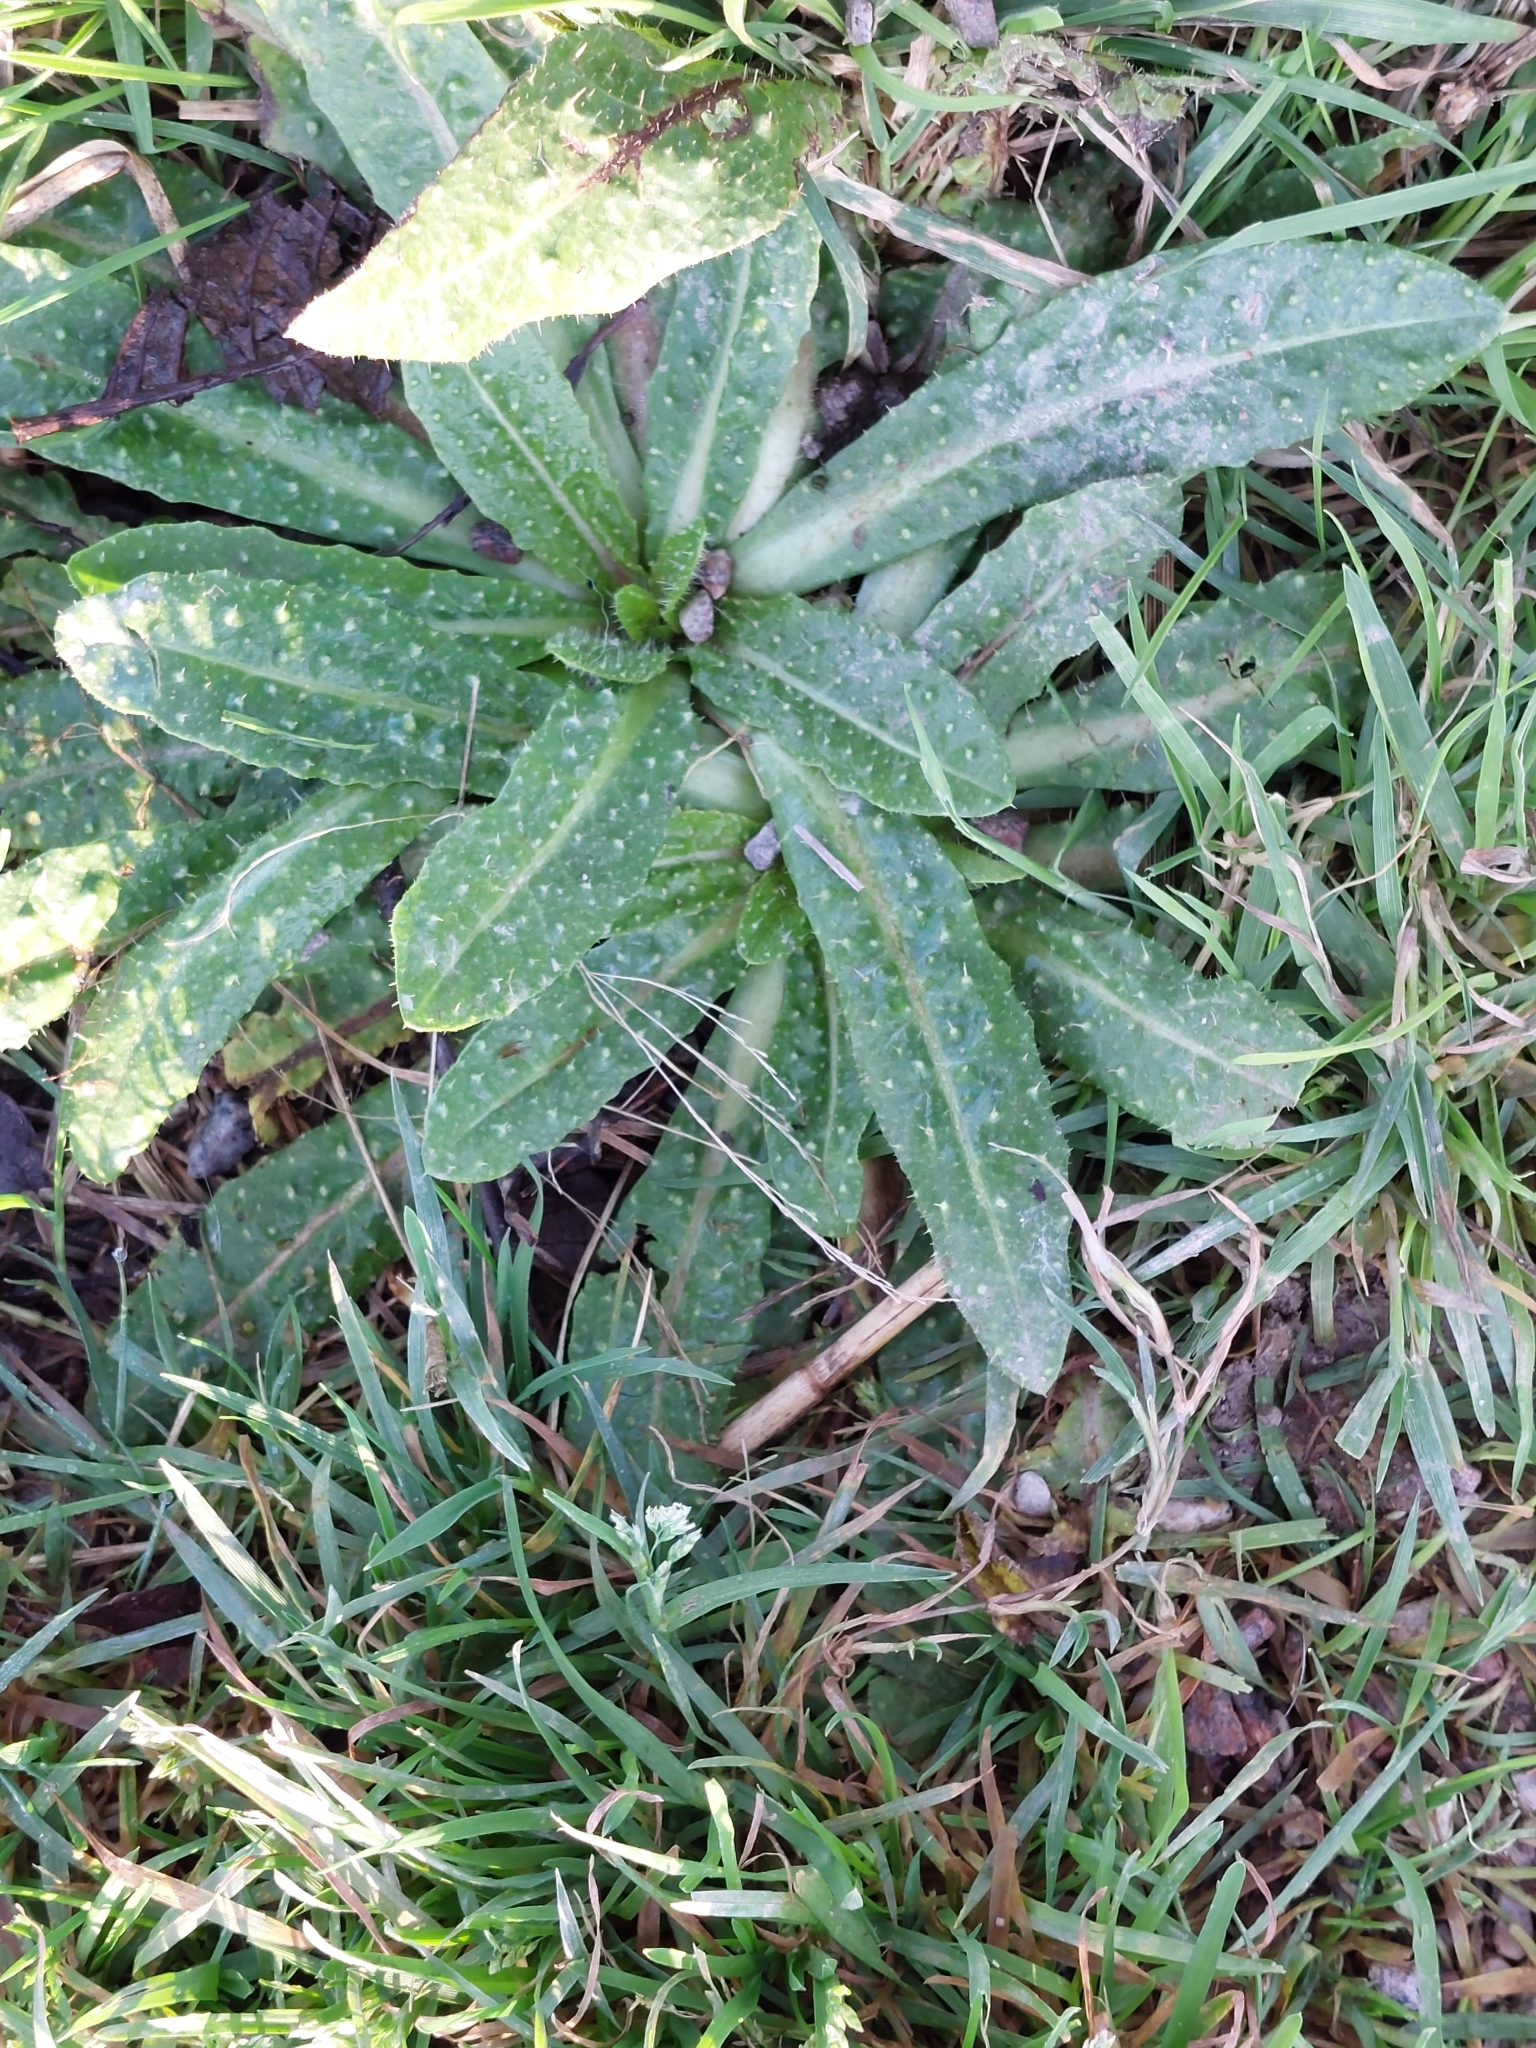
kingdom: Plantae
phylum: Tracheophyta
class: Magnoliopsida
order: Asterales
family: Asteraceae
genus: Helminthotheca
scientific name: Helminthotheca echioides
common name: Ox-tongue
